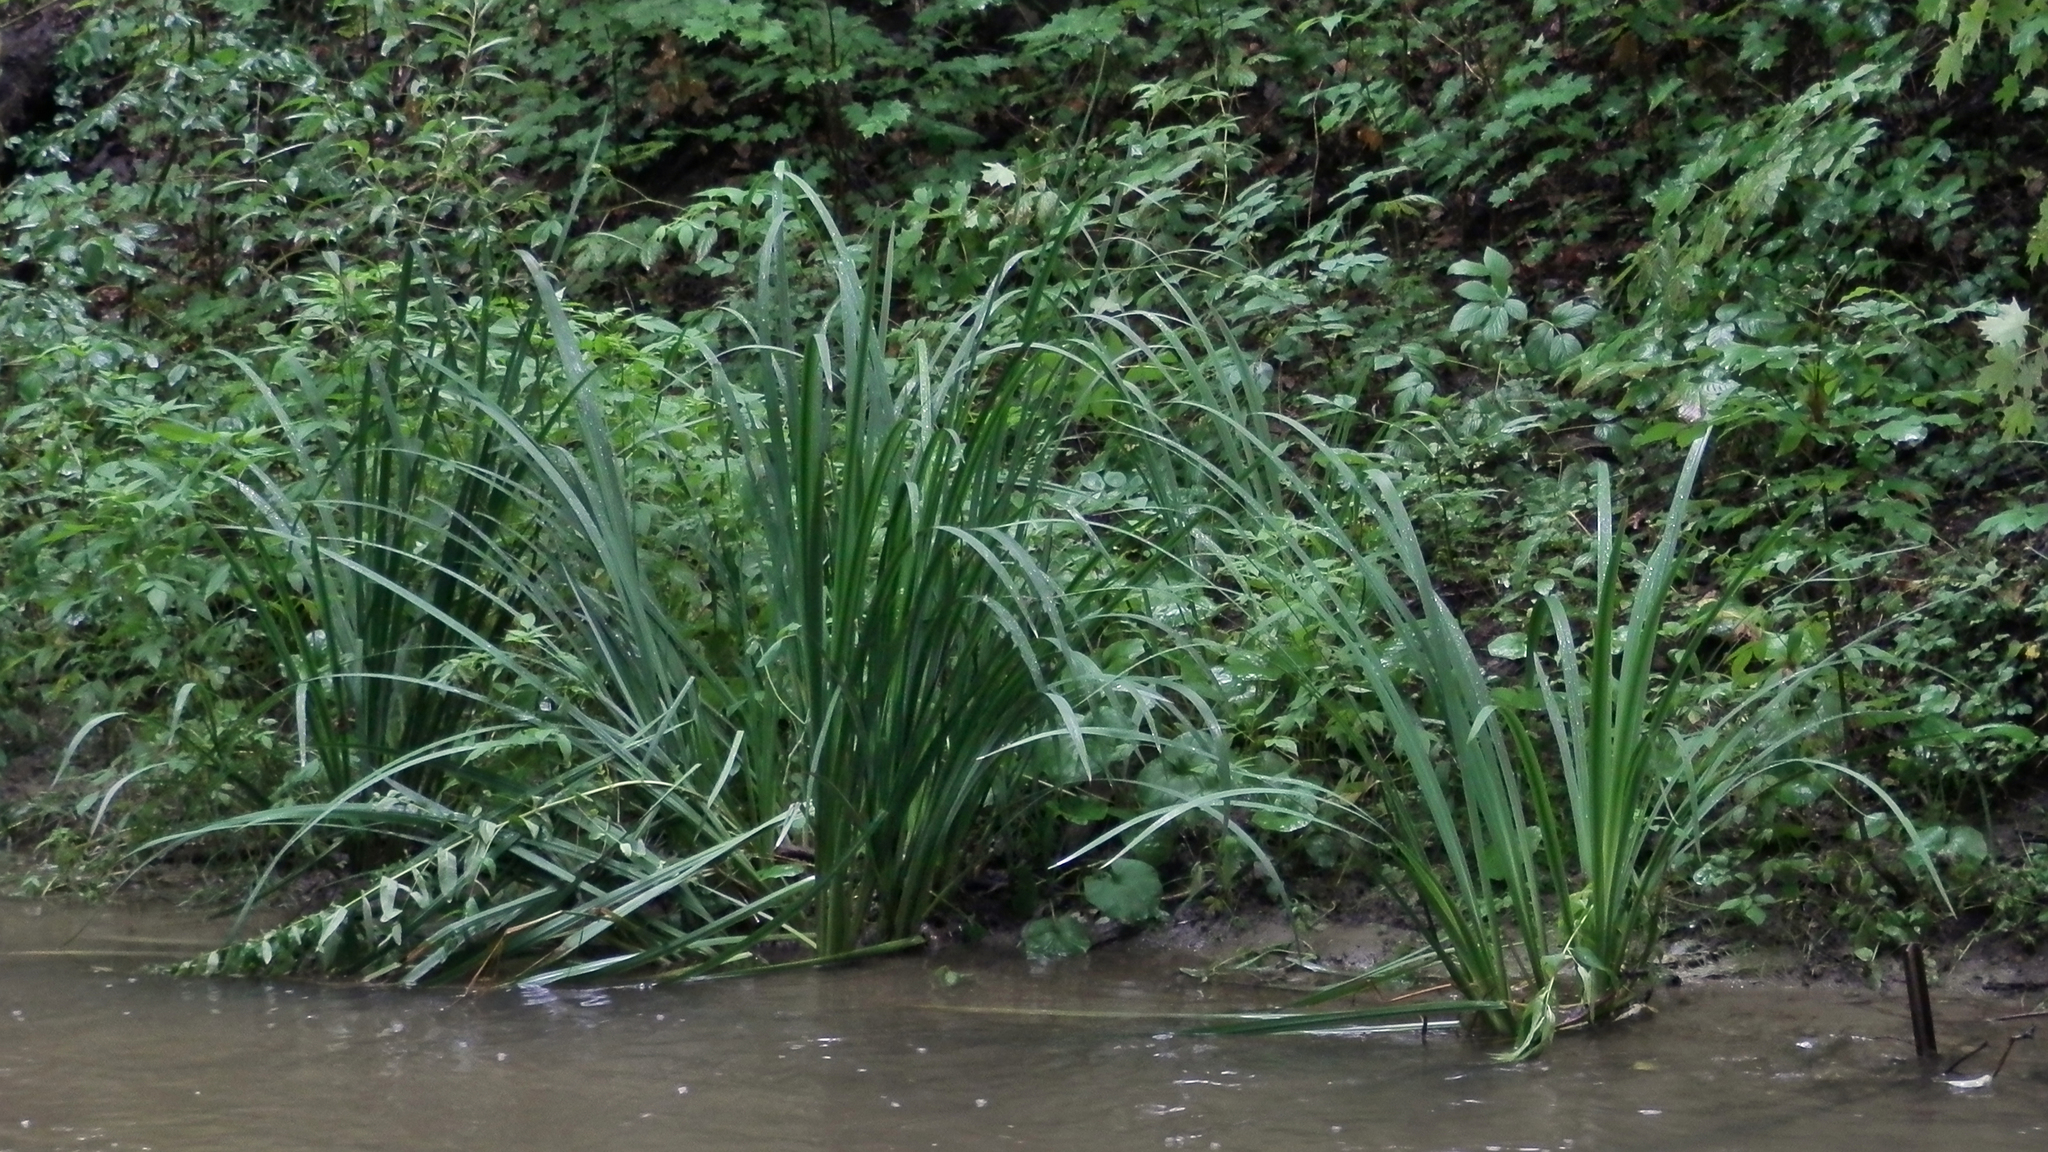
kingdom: Plantae
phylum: Tracheophyta
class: Liliopsida
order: Asparagales
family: Iridaceae
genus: Iris
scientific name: Iris pseudacorus
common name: Yellow flag
